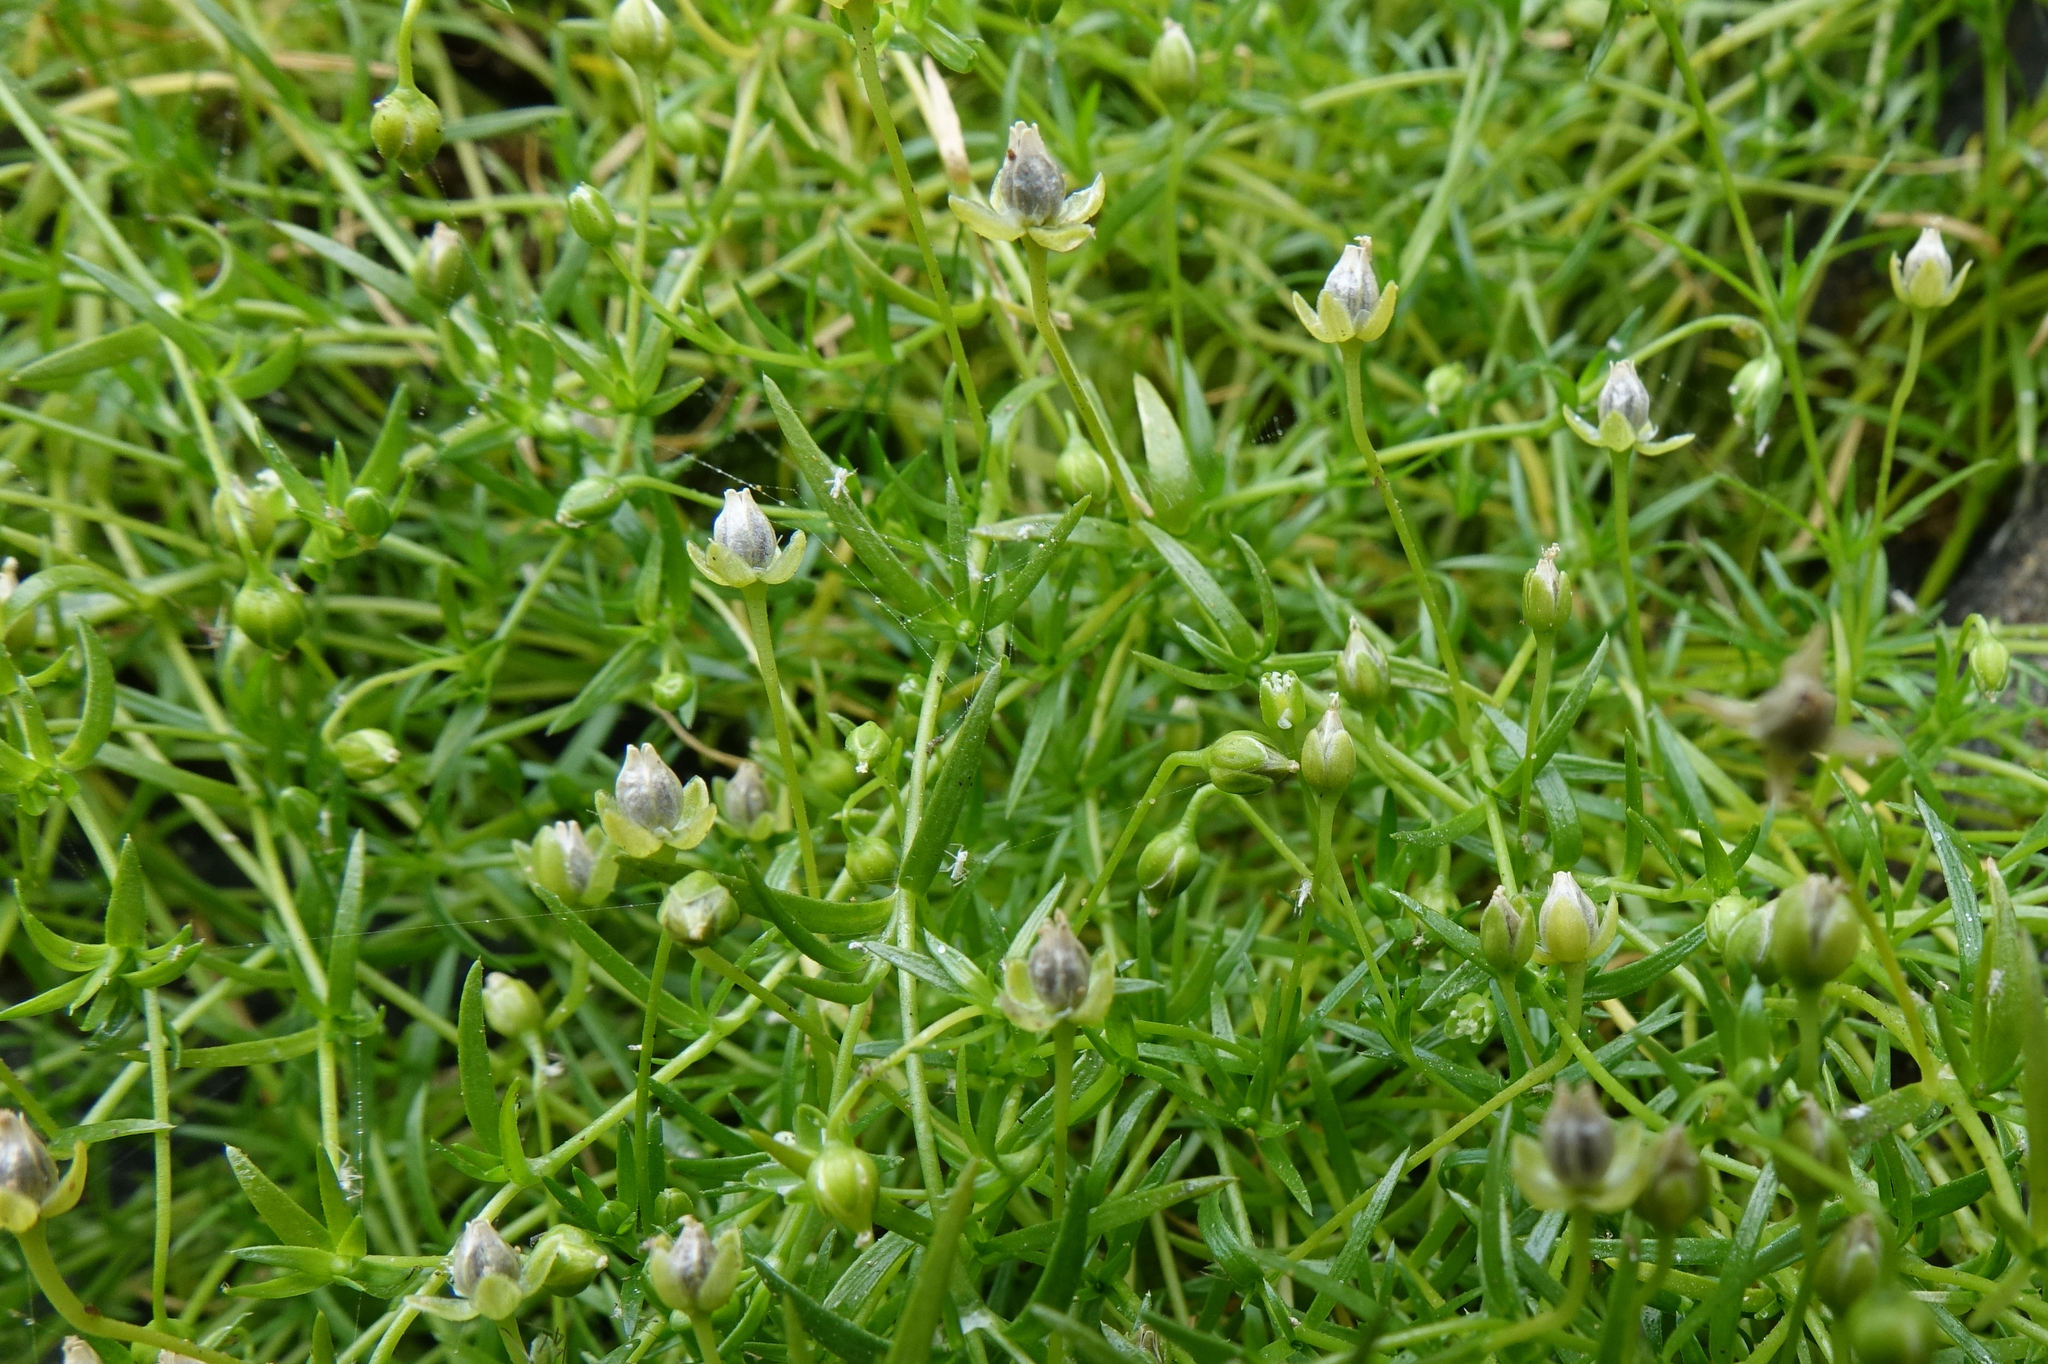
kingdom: Plantae
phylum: Tracheophyta
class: Magnoliopsida
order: Caryophyllales
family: Caryophyllaceae
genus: Sagina
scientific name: Sagina procumbens
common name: Procumbent pearlwort
